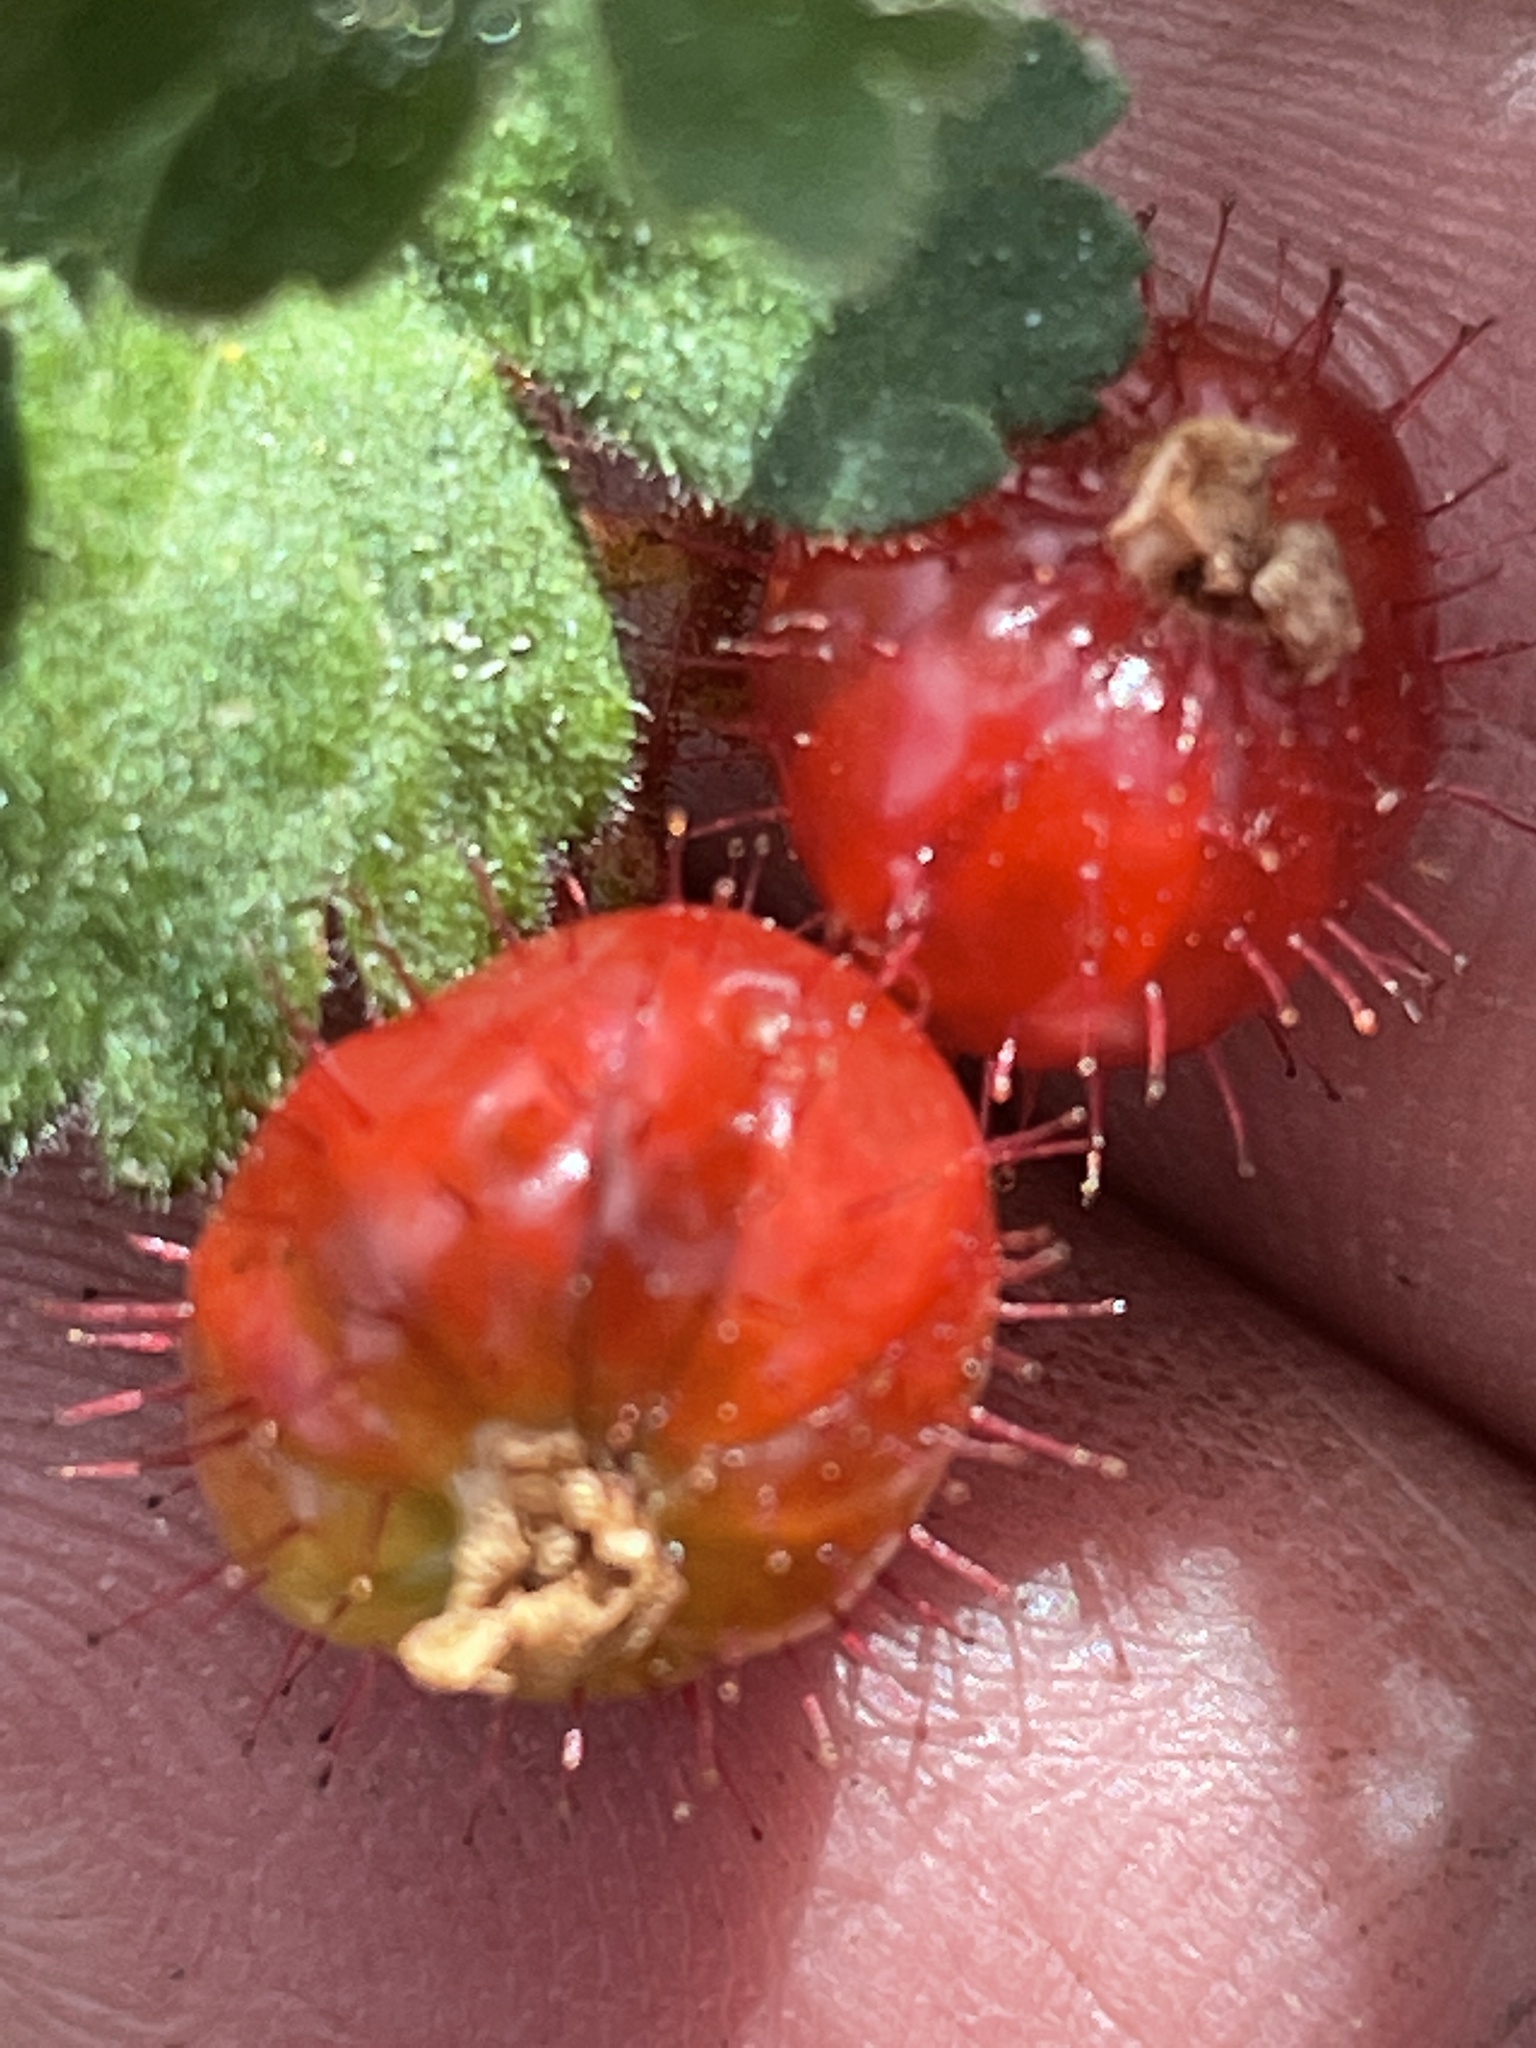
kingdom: Plantae
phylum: Tracheophyta
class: Magnoliopsida
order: Saxifragales
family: Grossulariaceae
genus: Ribes
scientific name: Ribes montigenum
